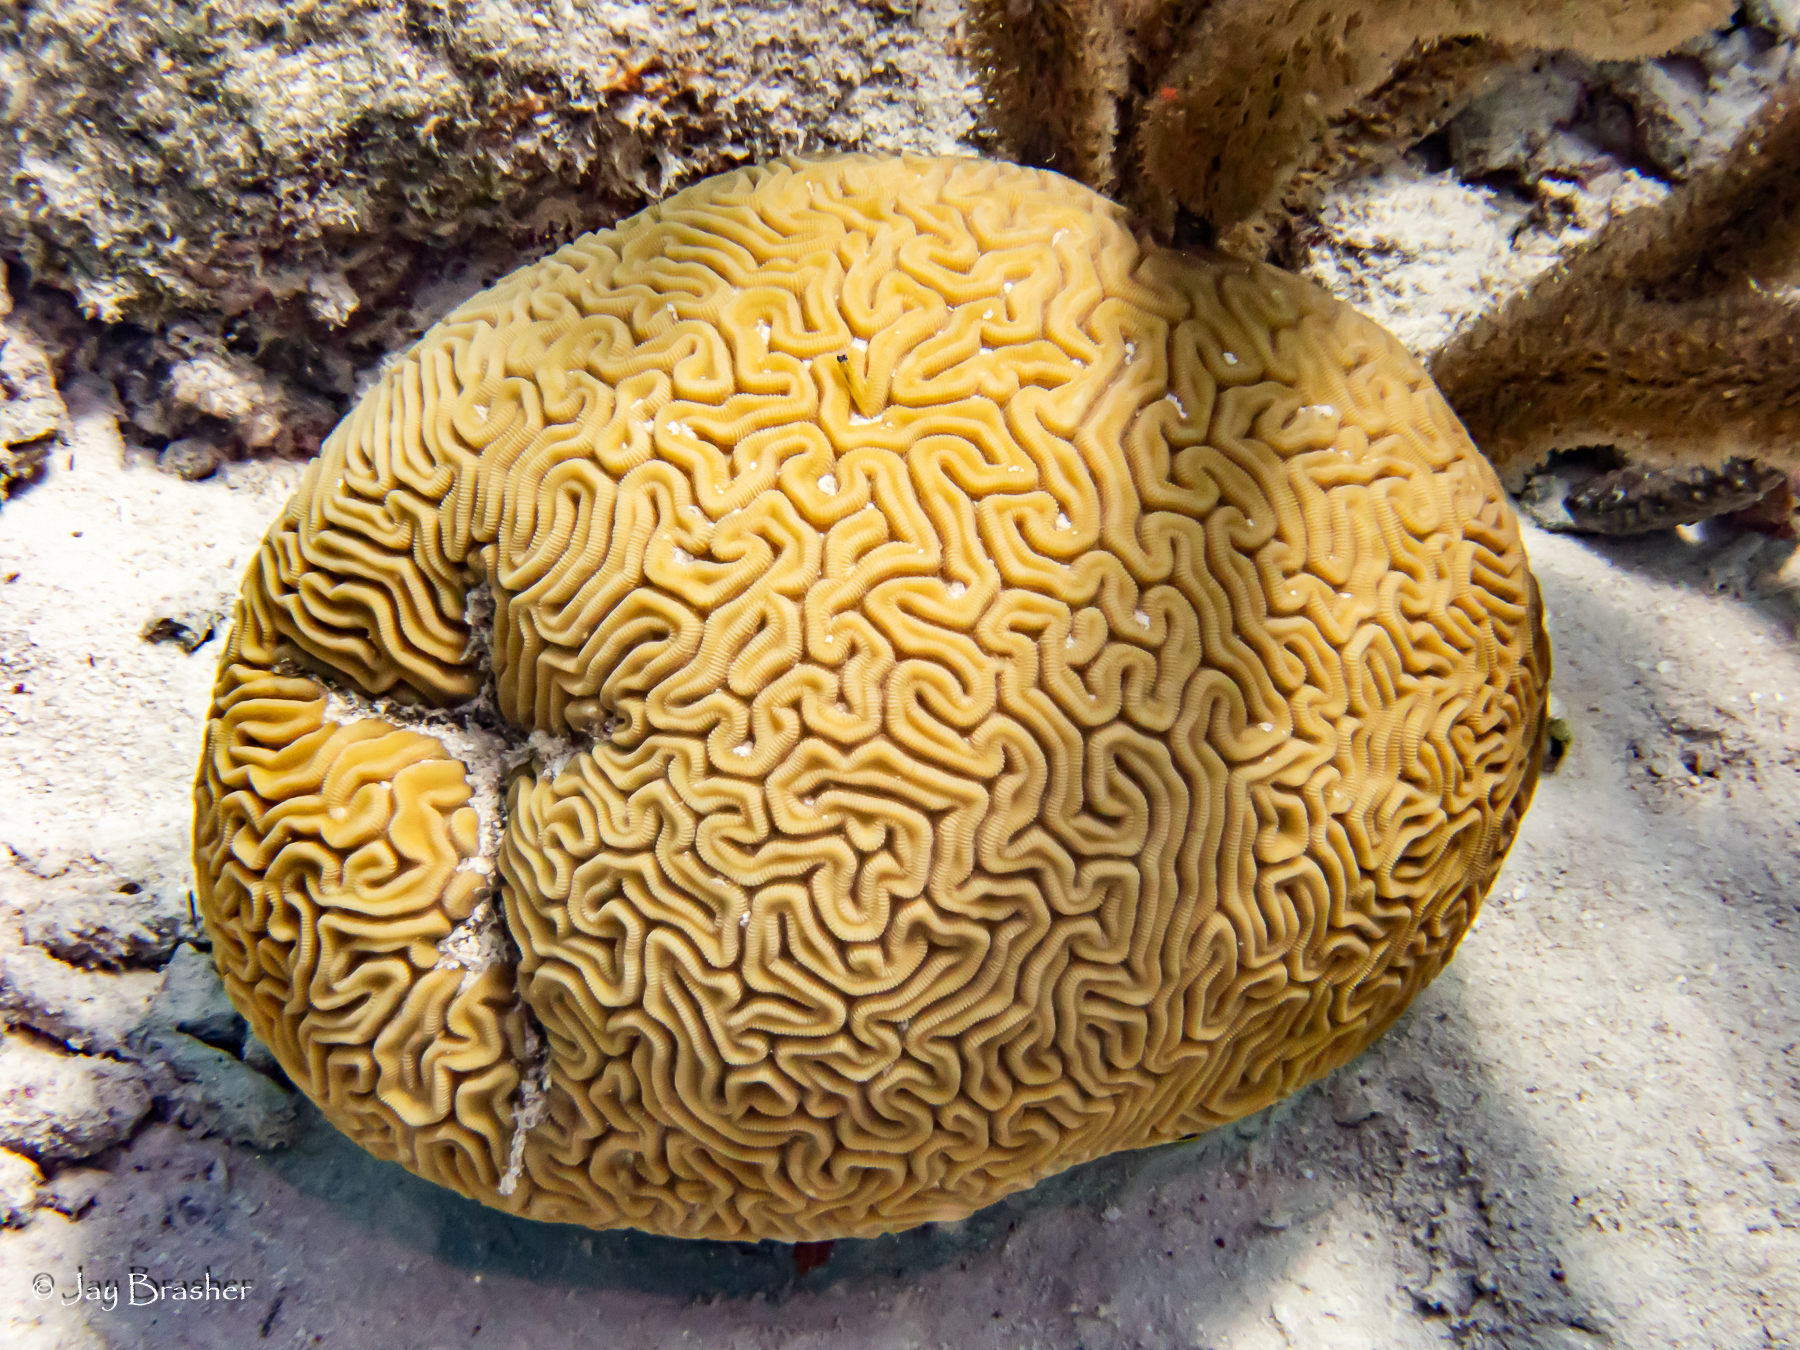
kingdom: Animalia
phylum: Cnidaria
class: Anthozoa
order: Scleractinia
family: Faviidae
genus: Diploria
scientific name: Diploria labyrinthiformis
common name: Grooved brain coral
